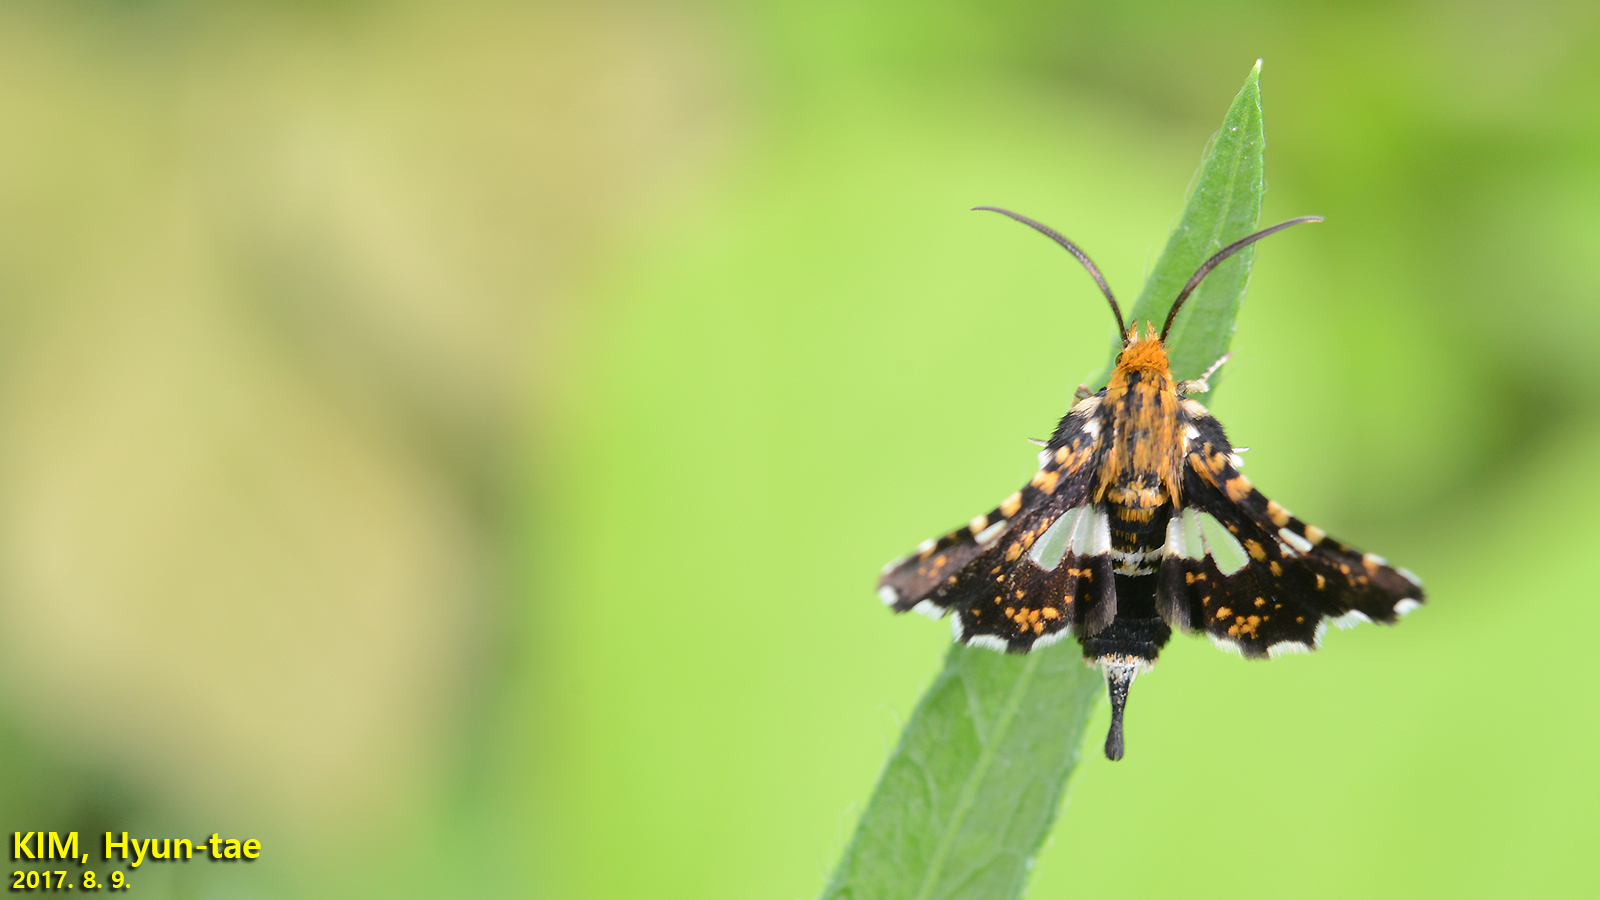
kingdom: Animalia
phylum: Arthropoda
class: Insecta
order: Lepidoptera
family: Thyrididae
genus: Thyris
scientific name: Thyris fenestrella
